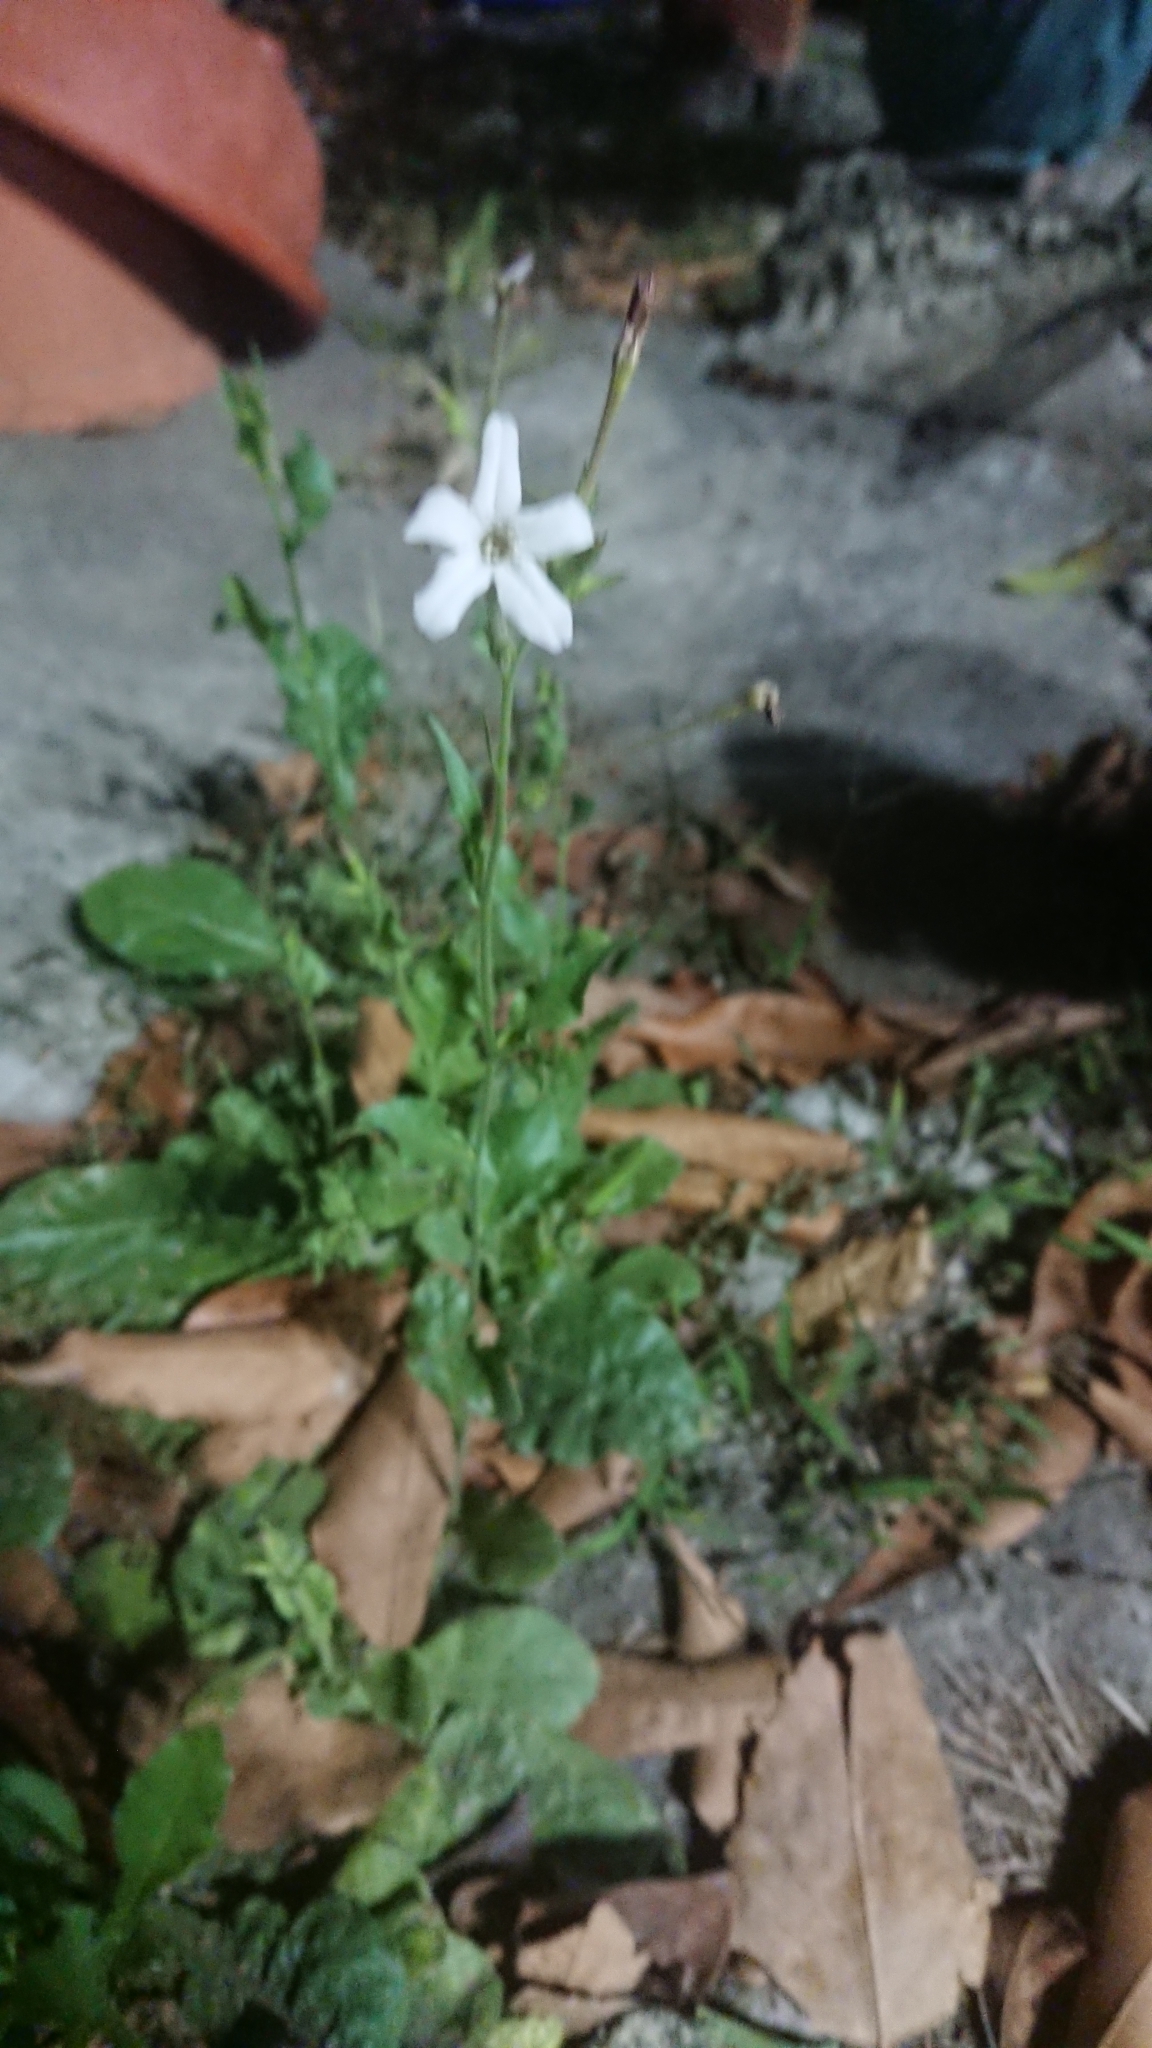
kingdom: Plantae
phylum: Tracheophyta
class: Magnoliopsida
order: Solanales
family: Solanaceae
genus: Nicotiana
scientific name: Nicotiana plumbaginifolia
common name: Tex-mex tobacco
